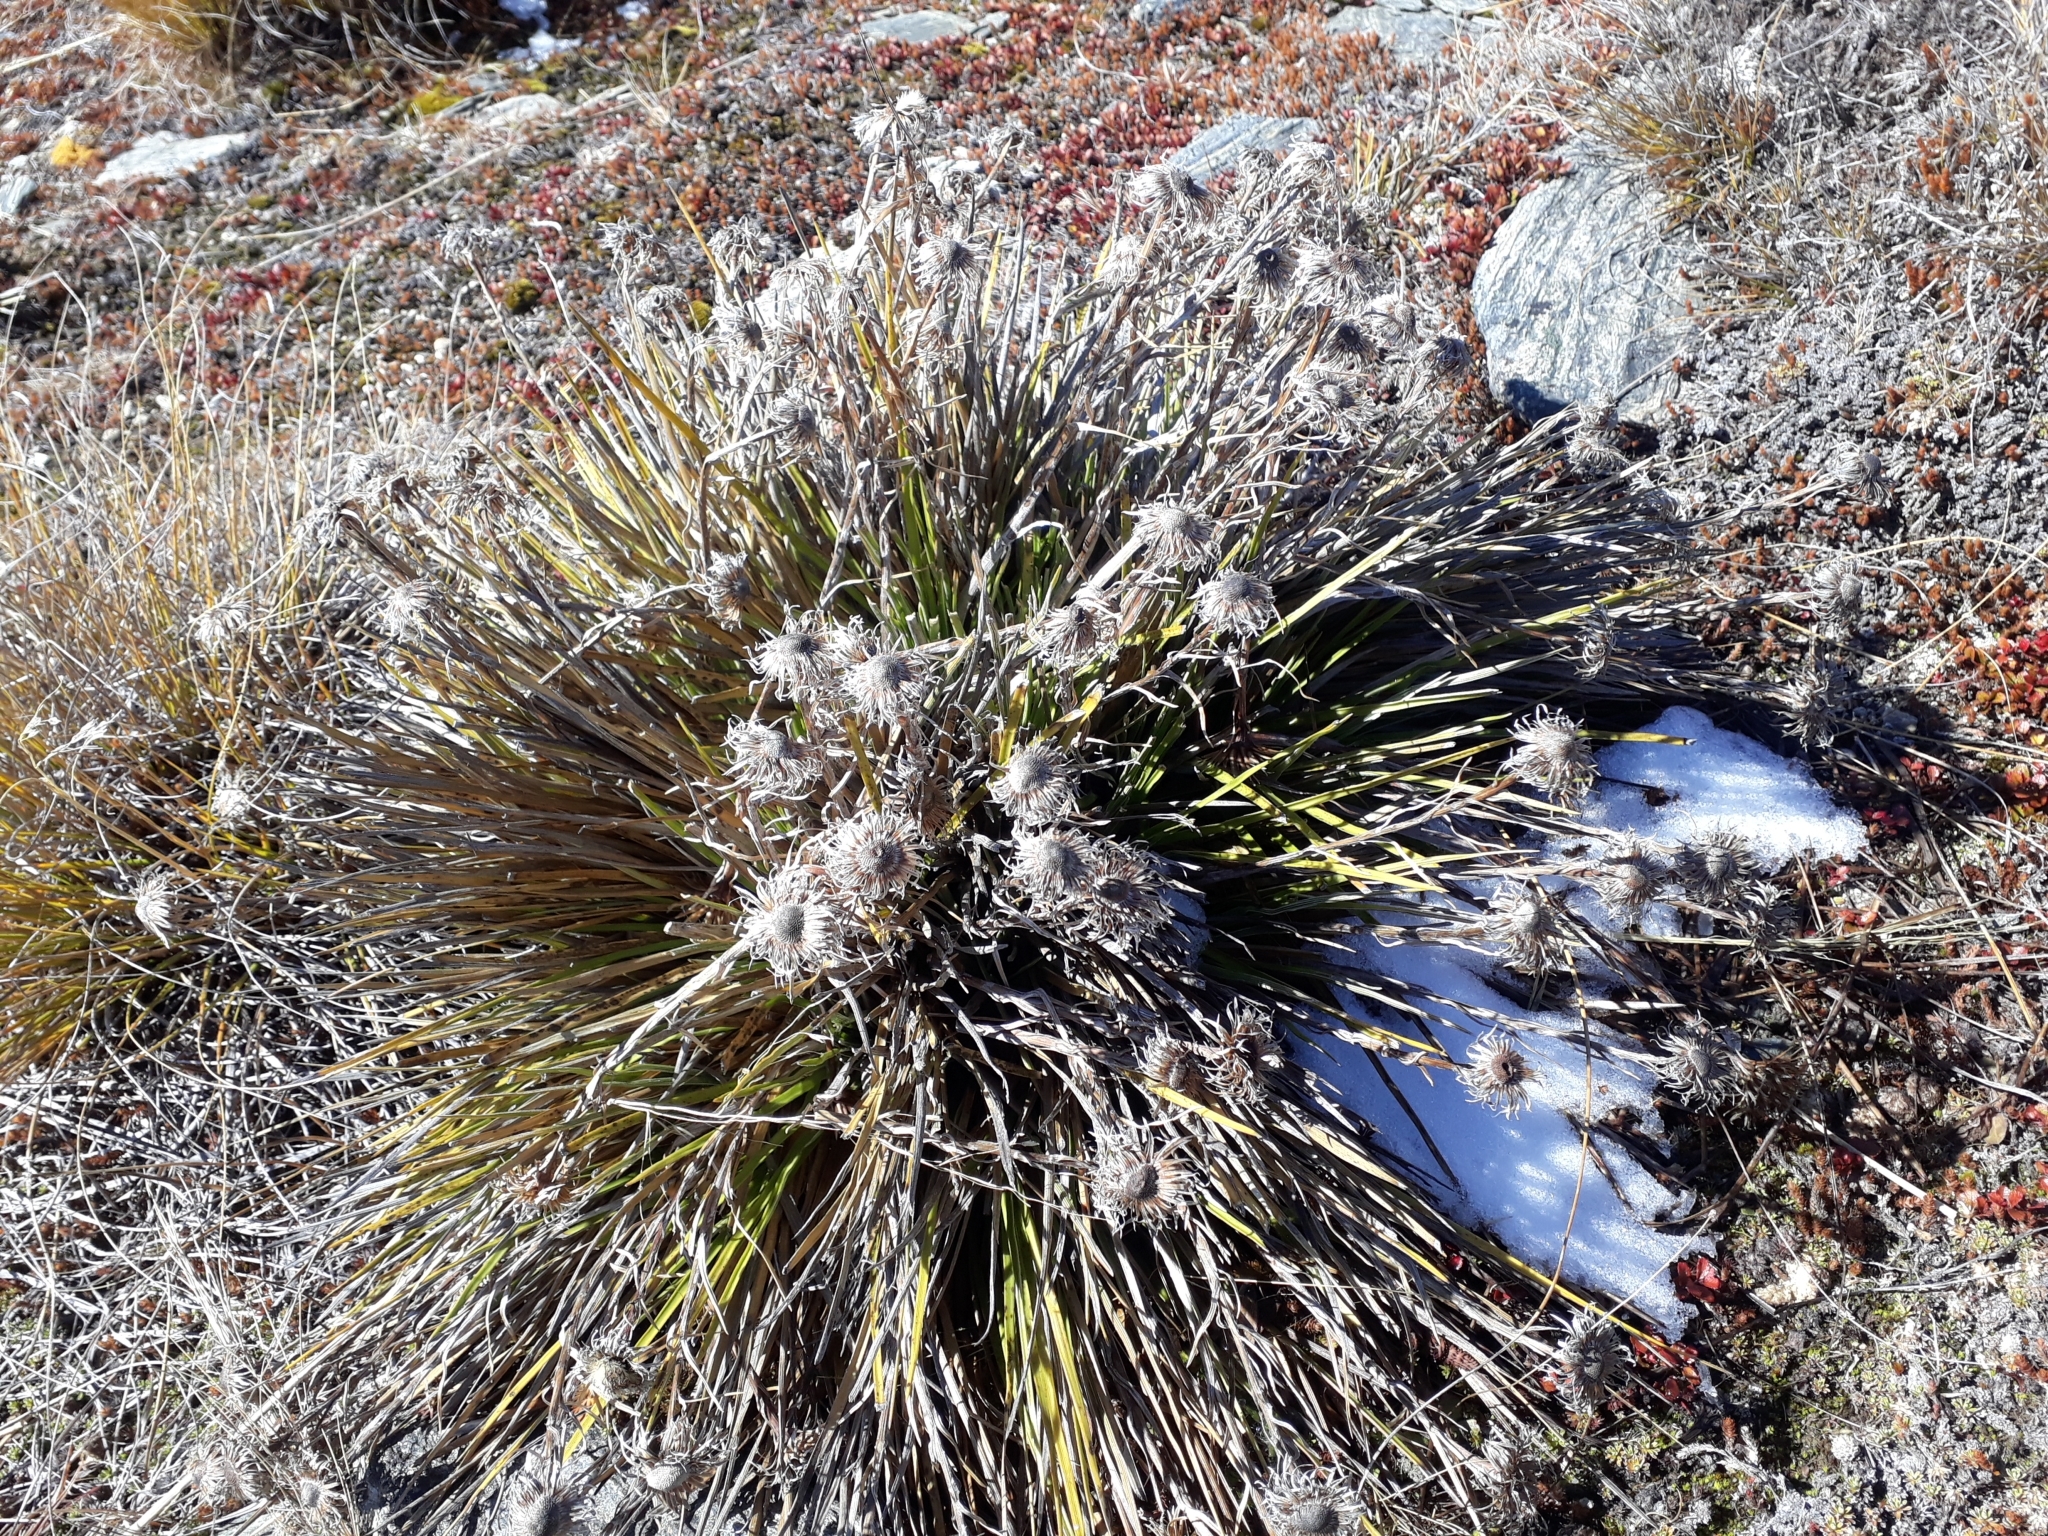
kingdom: Plantae
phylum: Tracheophyta
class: Magnoliopsida
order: Asterales
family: Asteraceae
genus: Celmisia
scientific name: Celmisia lyallii
